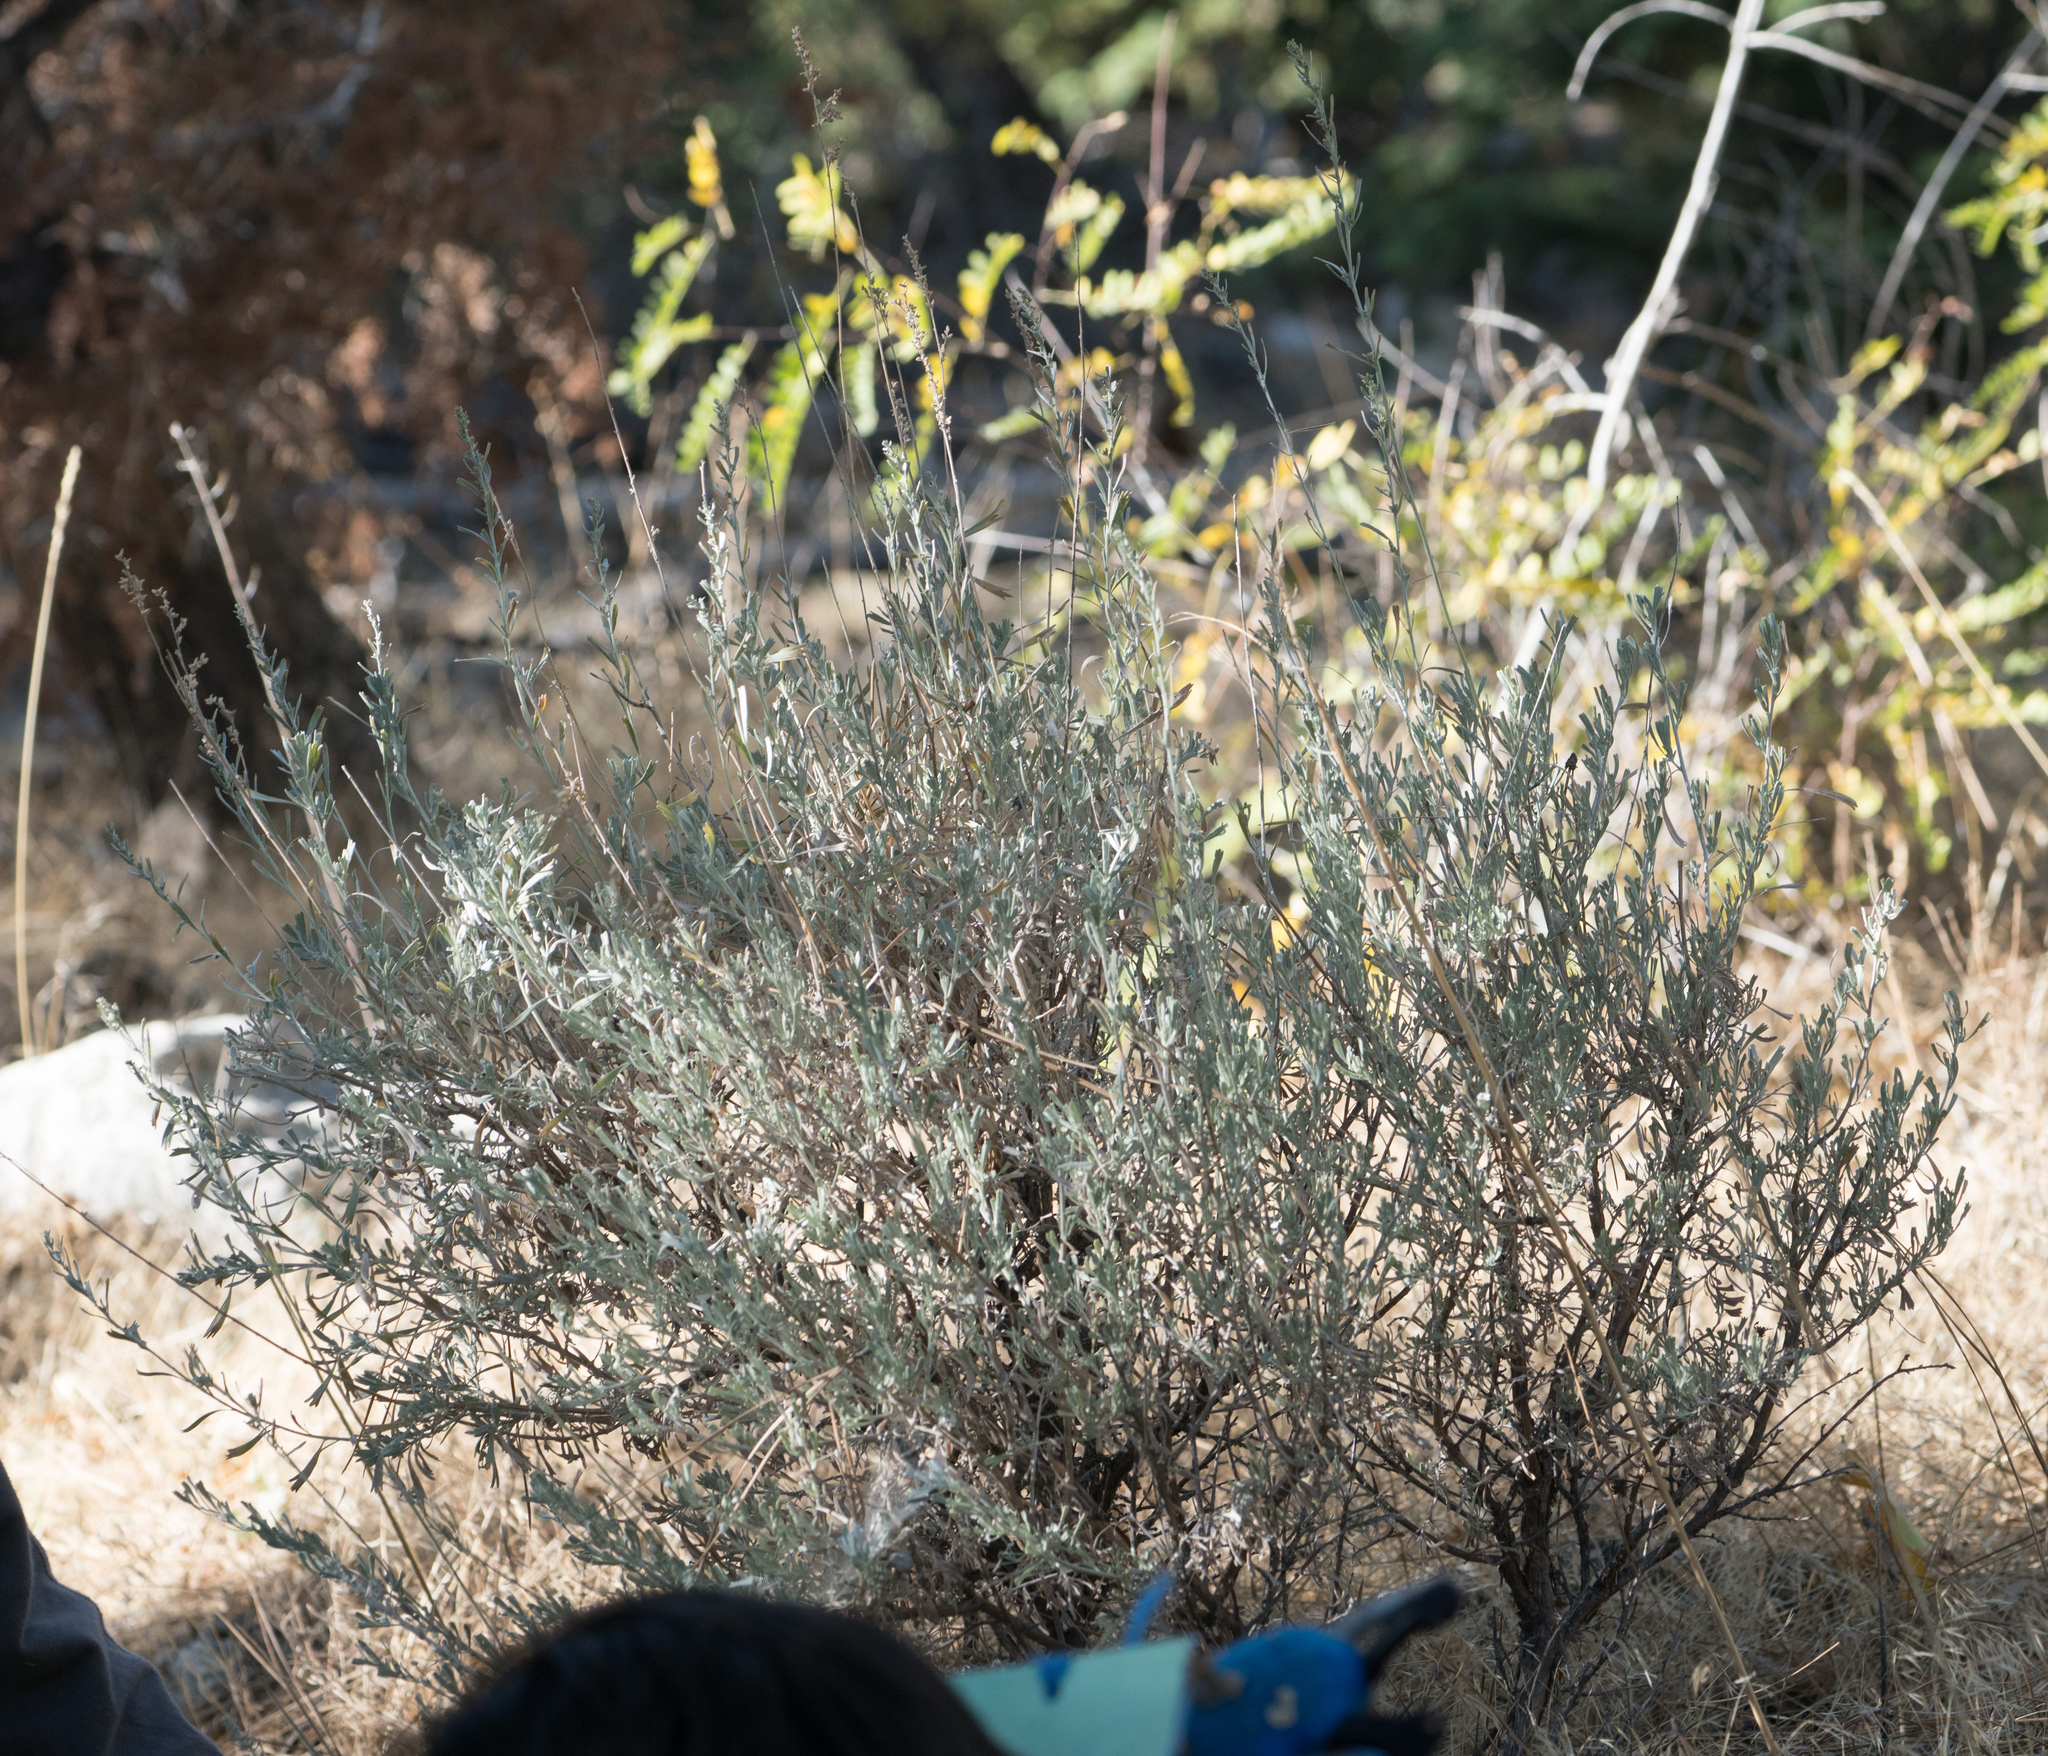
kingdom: Plantae
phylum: Tracheophyta
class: Magnoliopsida
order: Asterales
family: Asteraceae
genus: Artemisia
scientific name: Artemisia tridentata
